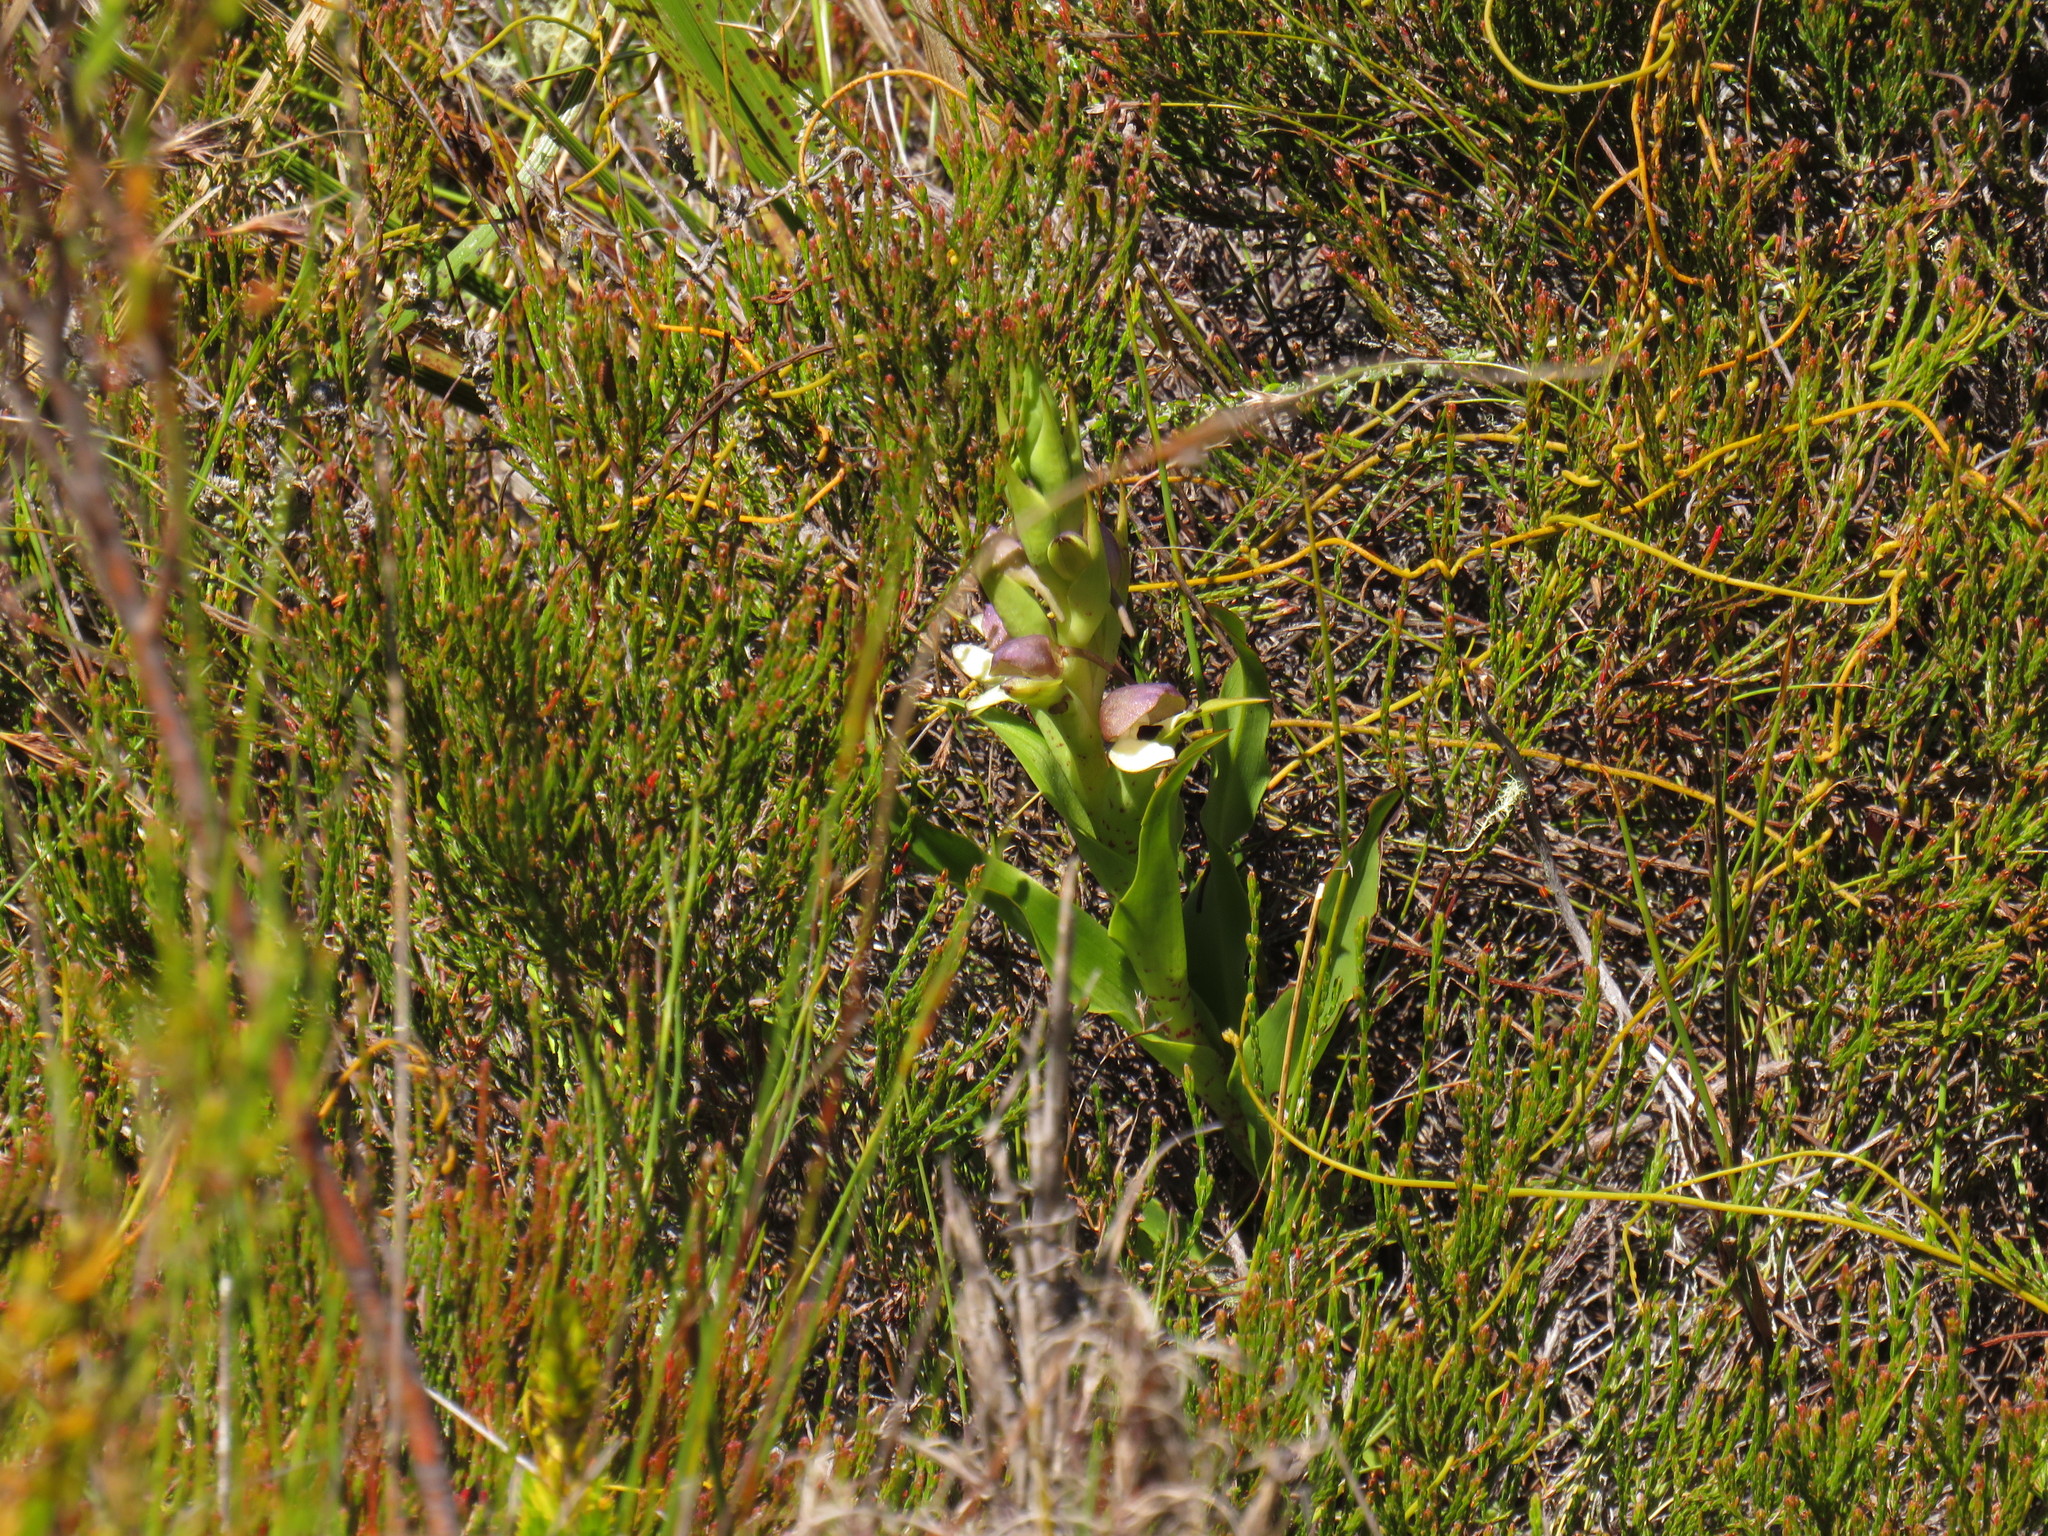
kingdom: Plantae
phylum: Tracheophyta
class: Liliopsida
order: Asparagales
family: Orchidaceae
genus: Disa
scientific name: Disa cornuta
